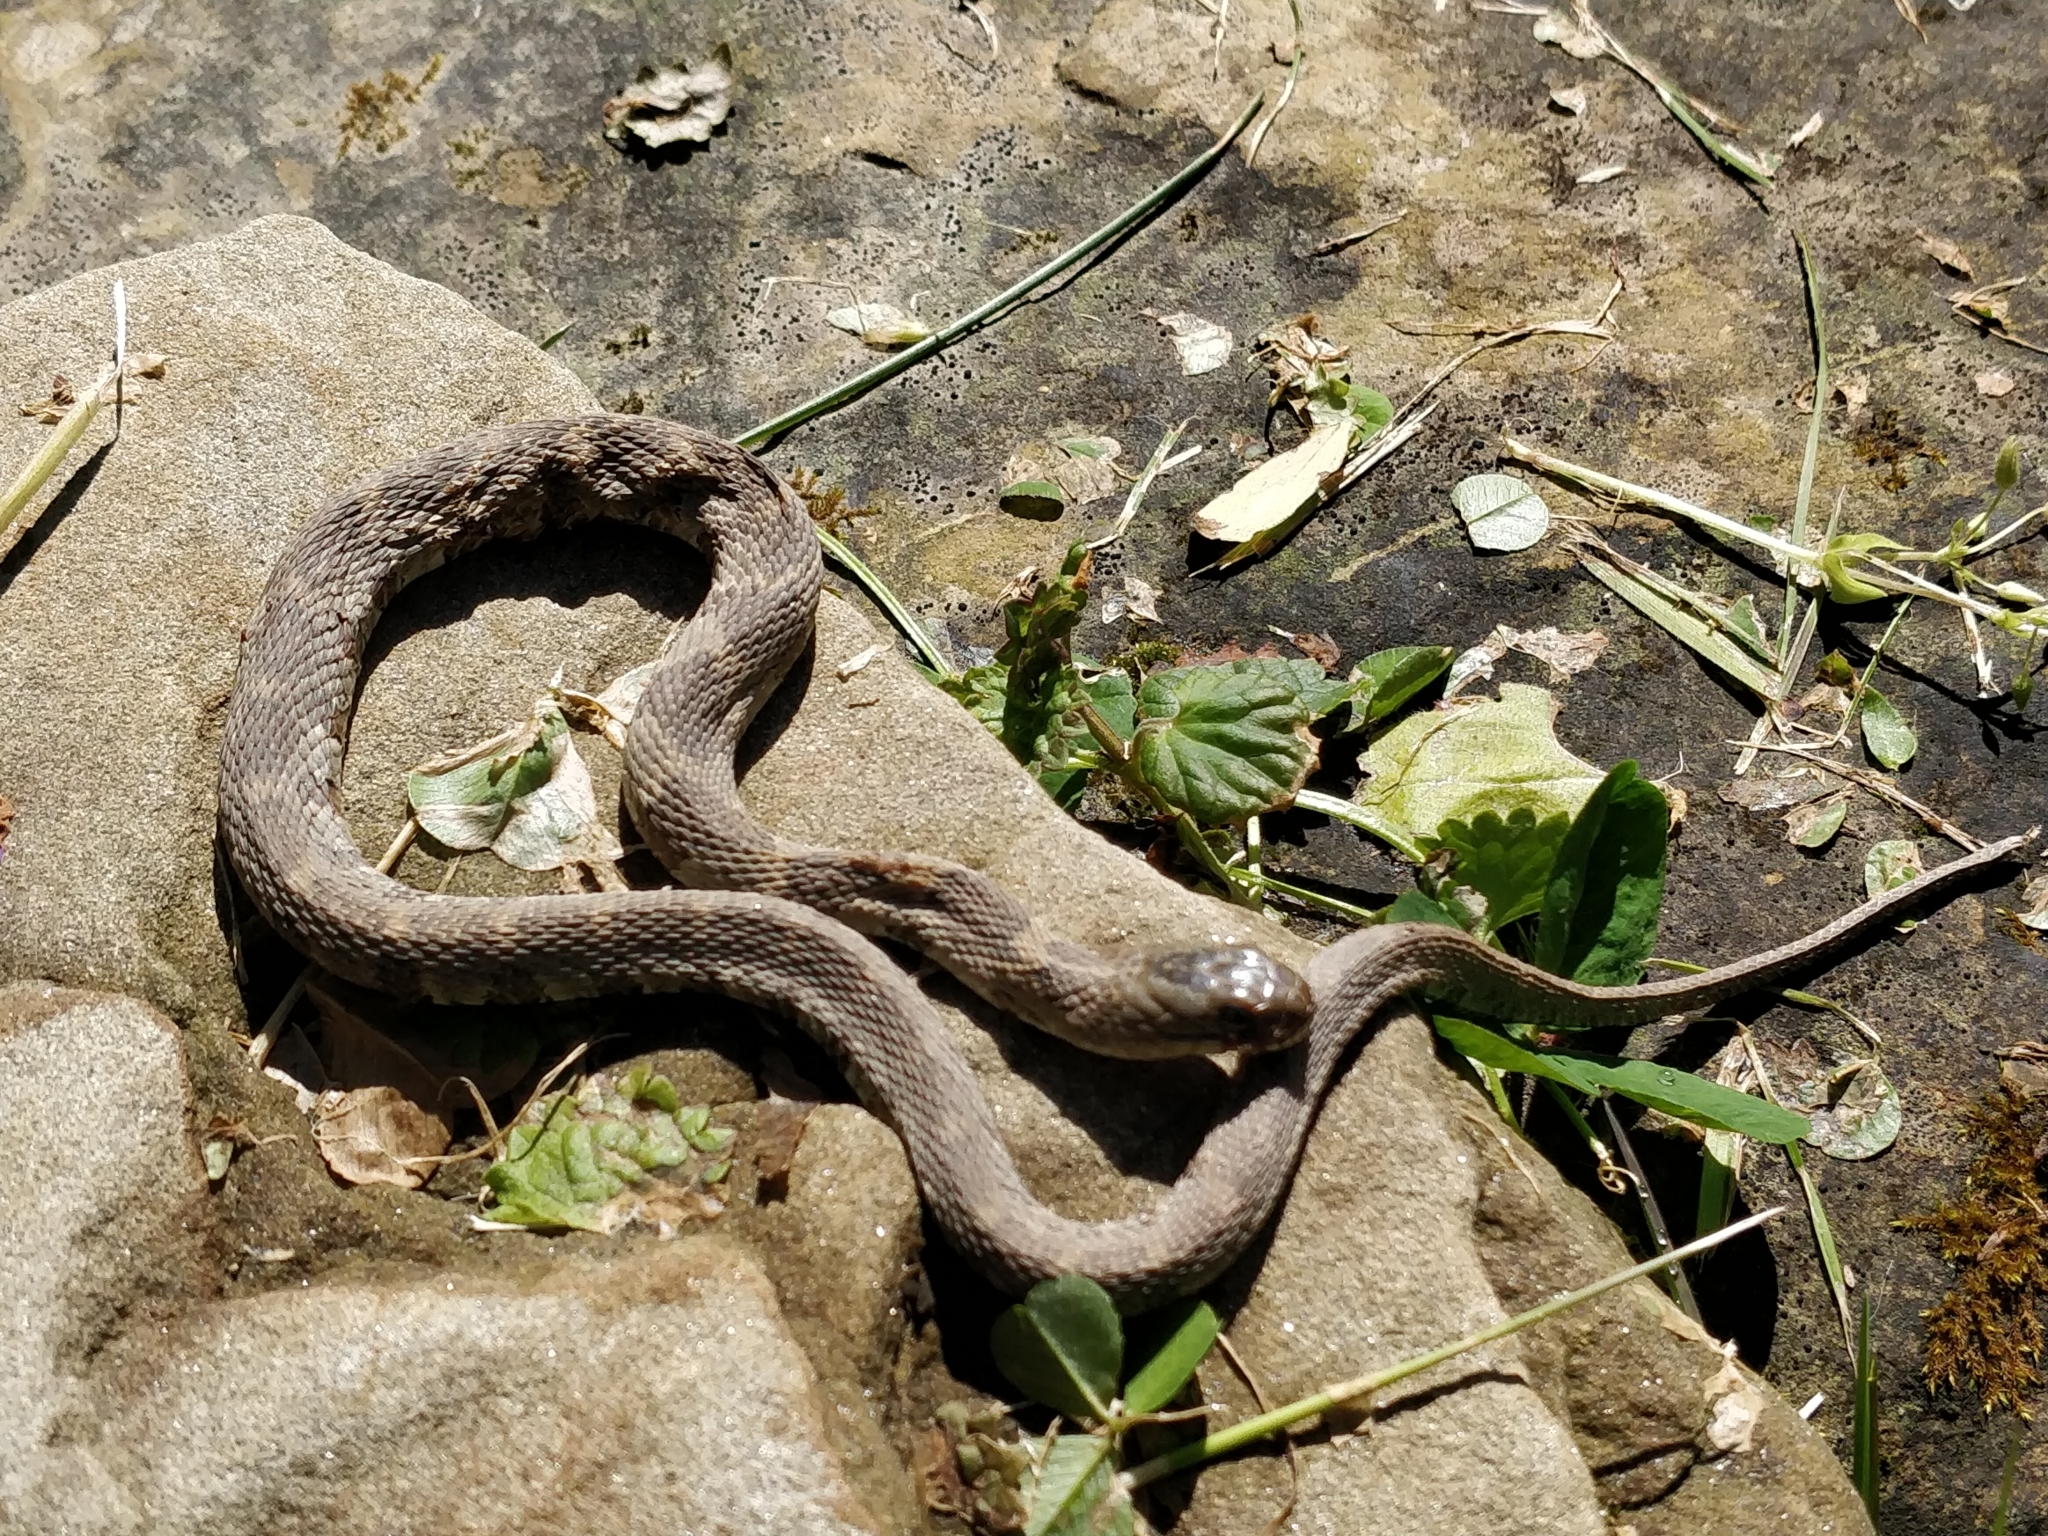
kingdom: Animalia
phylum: Chordata
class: Squamata
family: Colubridae
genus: Nerodia
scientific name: Nerodia sipedon
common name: Northern water snake
